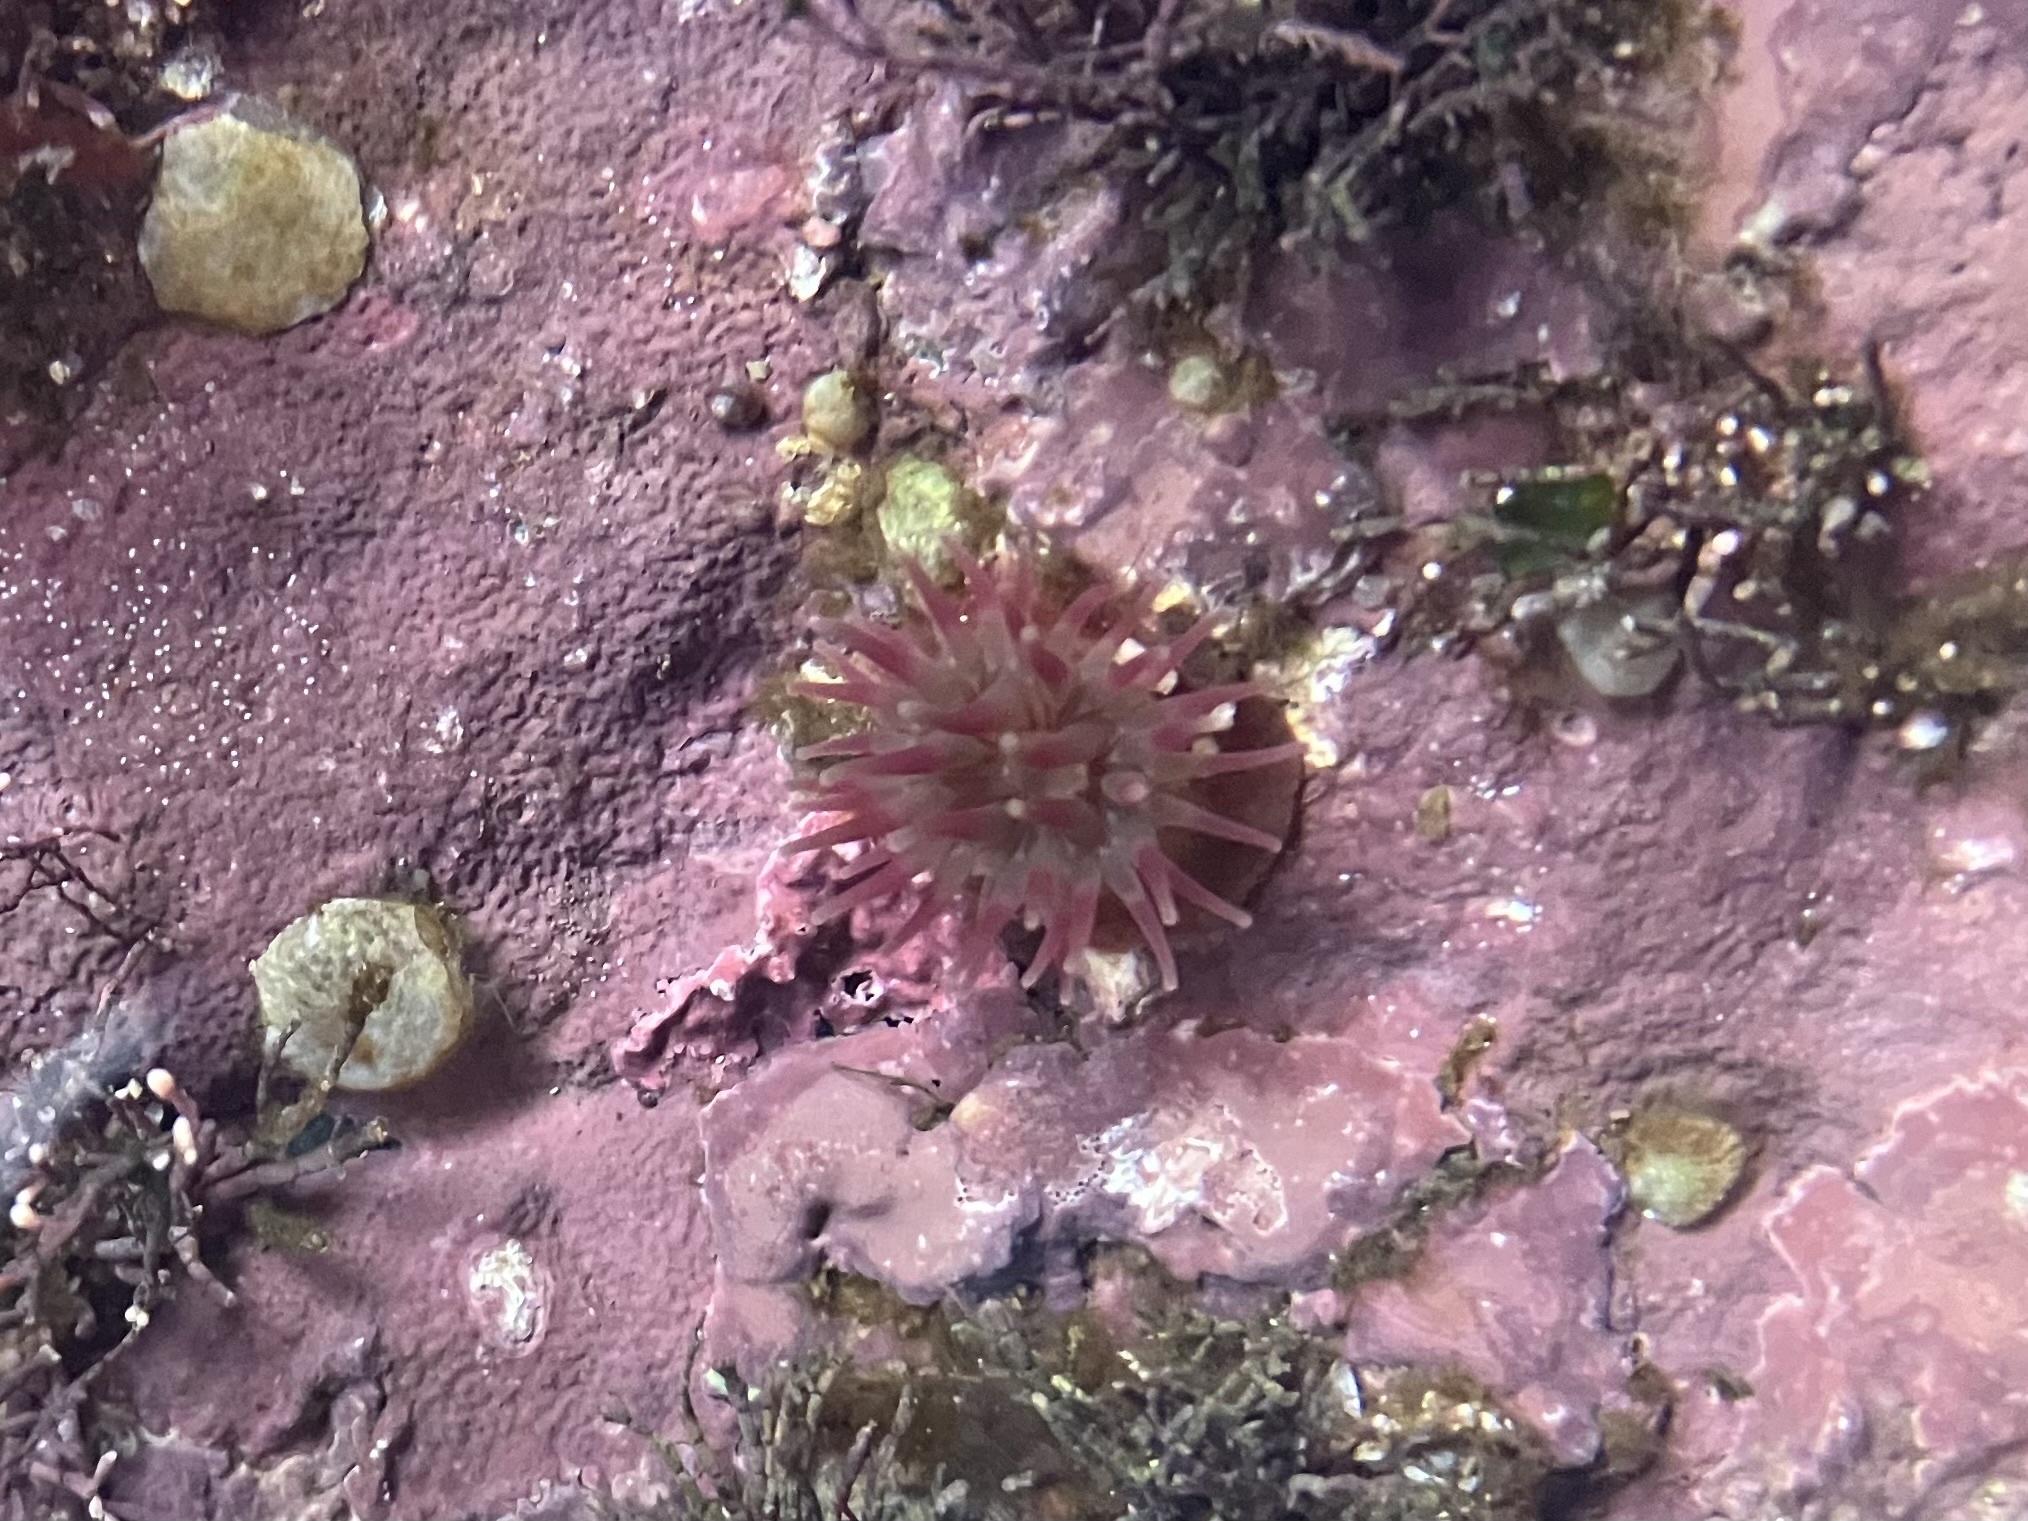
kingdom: Animalia
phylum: Cnidaria
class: Anthozoa
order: Actiniaria
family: Actiniidae
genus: Urticina
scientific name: Urticina crassicornis
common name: Mottled anemone
